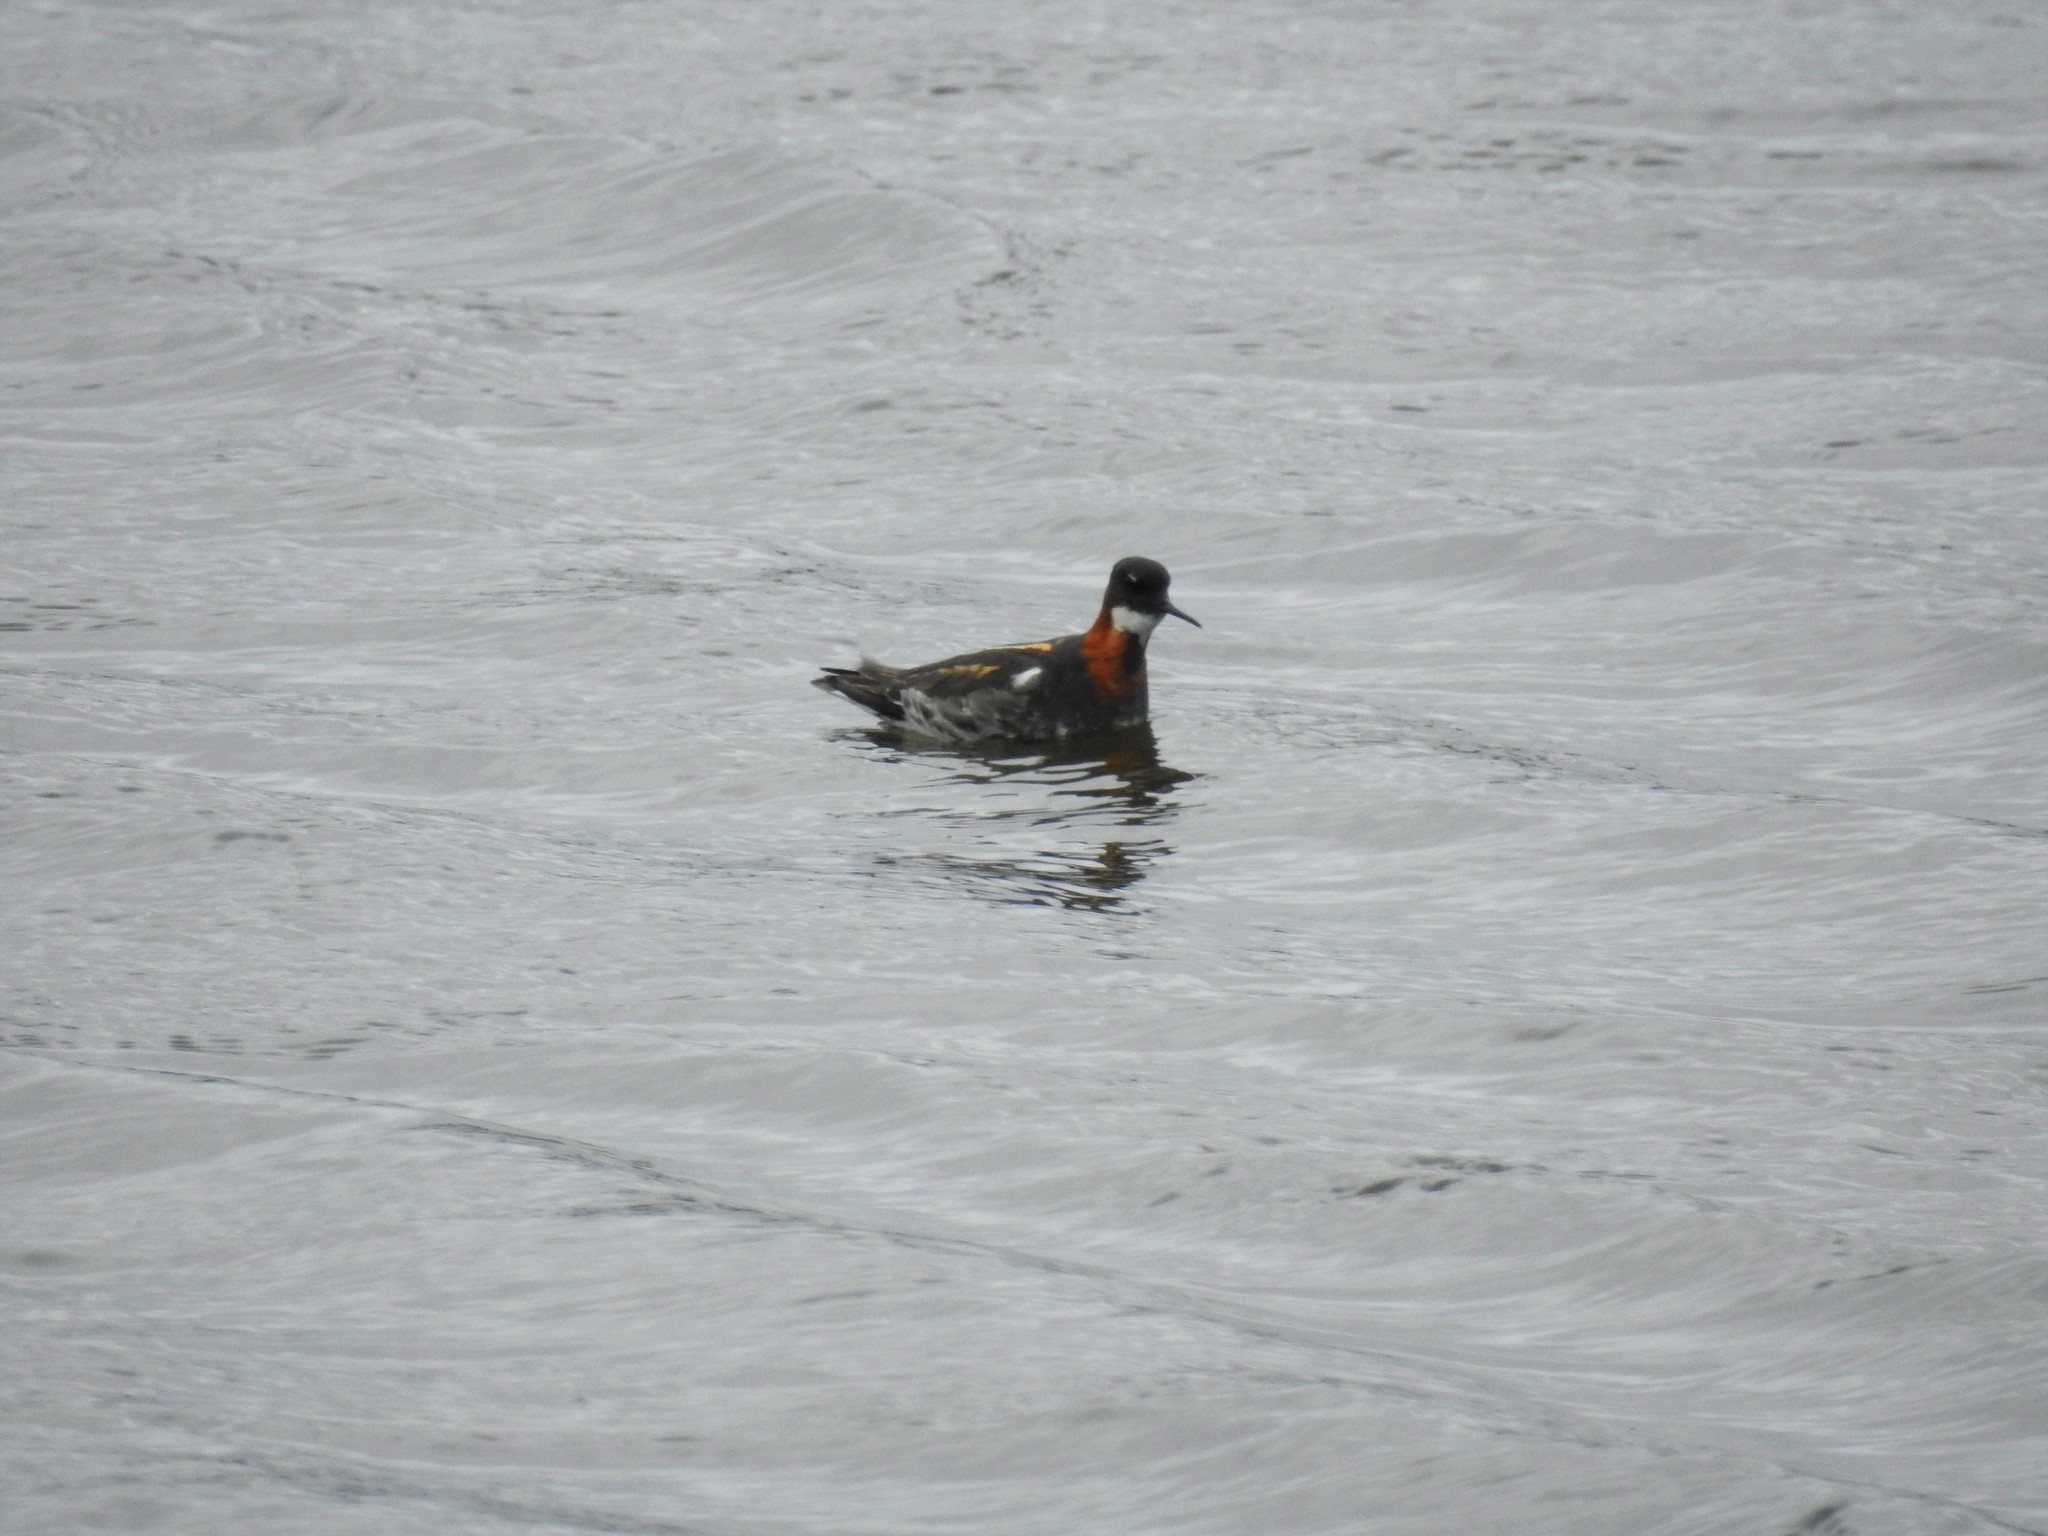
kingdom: Animalia
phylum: Chordata
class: Aves
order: Charadriiformes
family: Scolopacidae
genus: Phalaropus
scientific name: Phalaropus lobatus
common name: Red-necked phalarope
